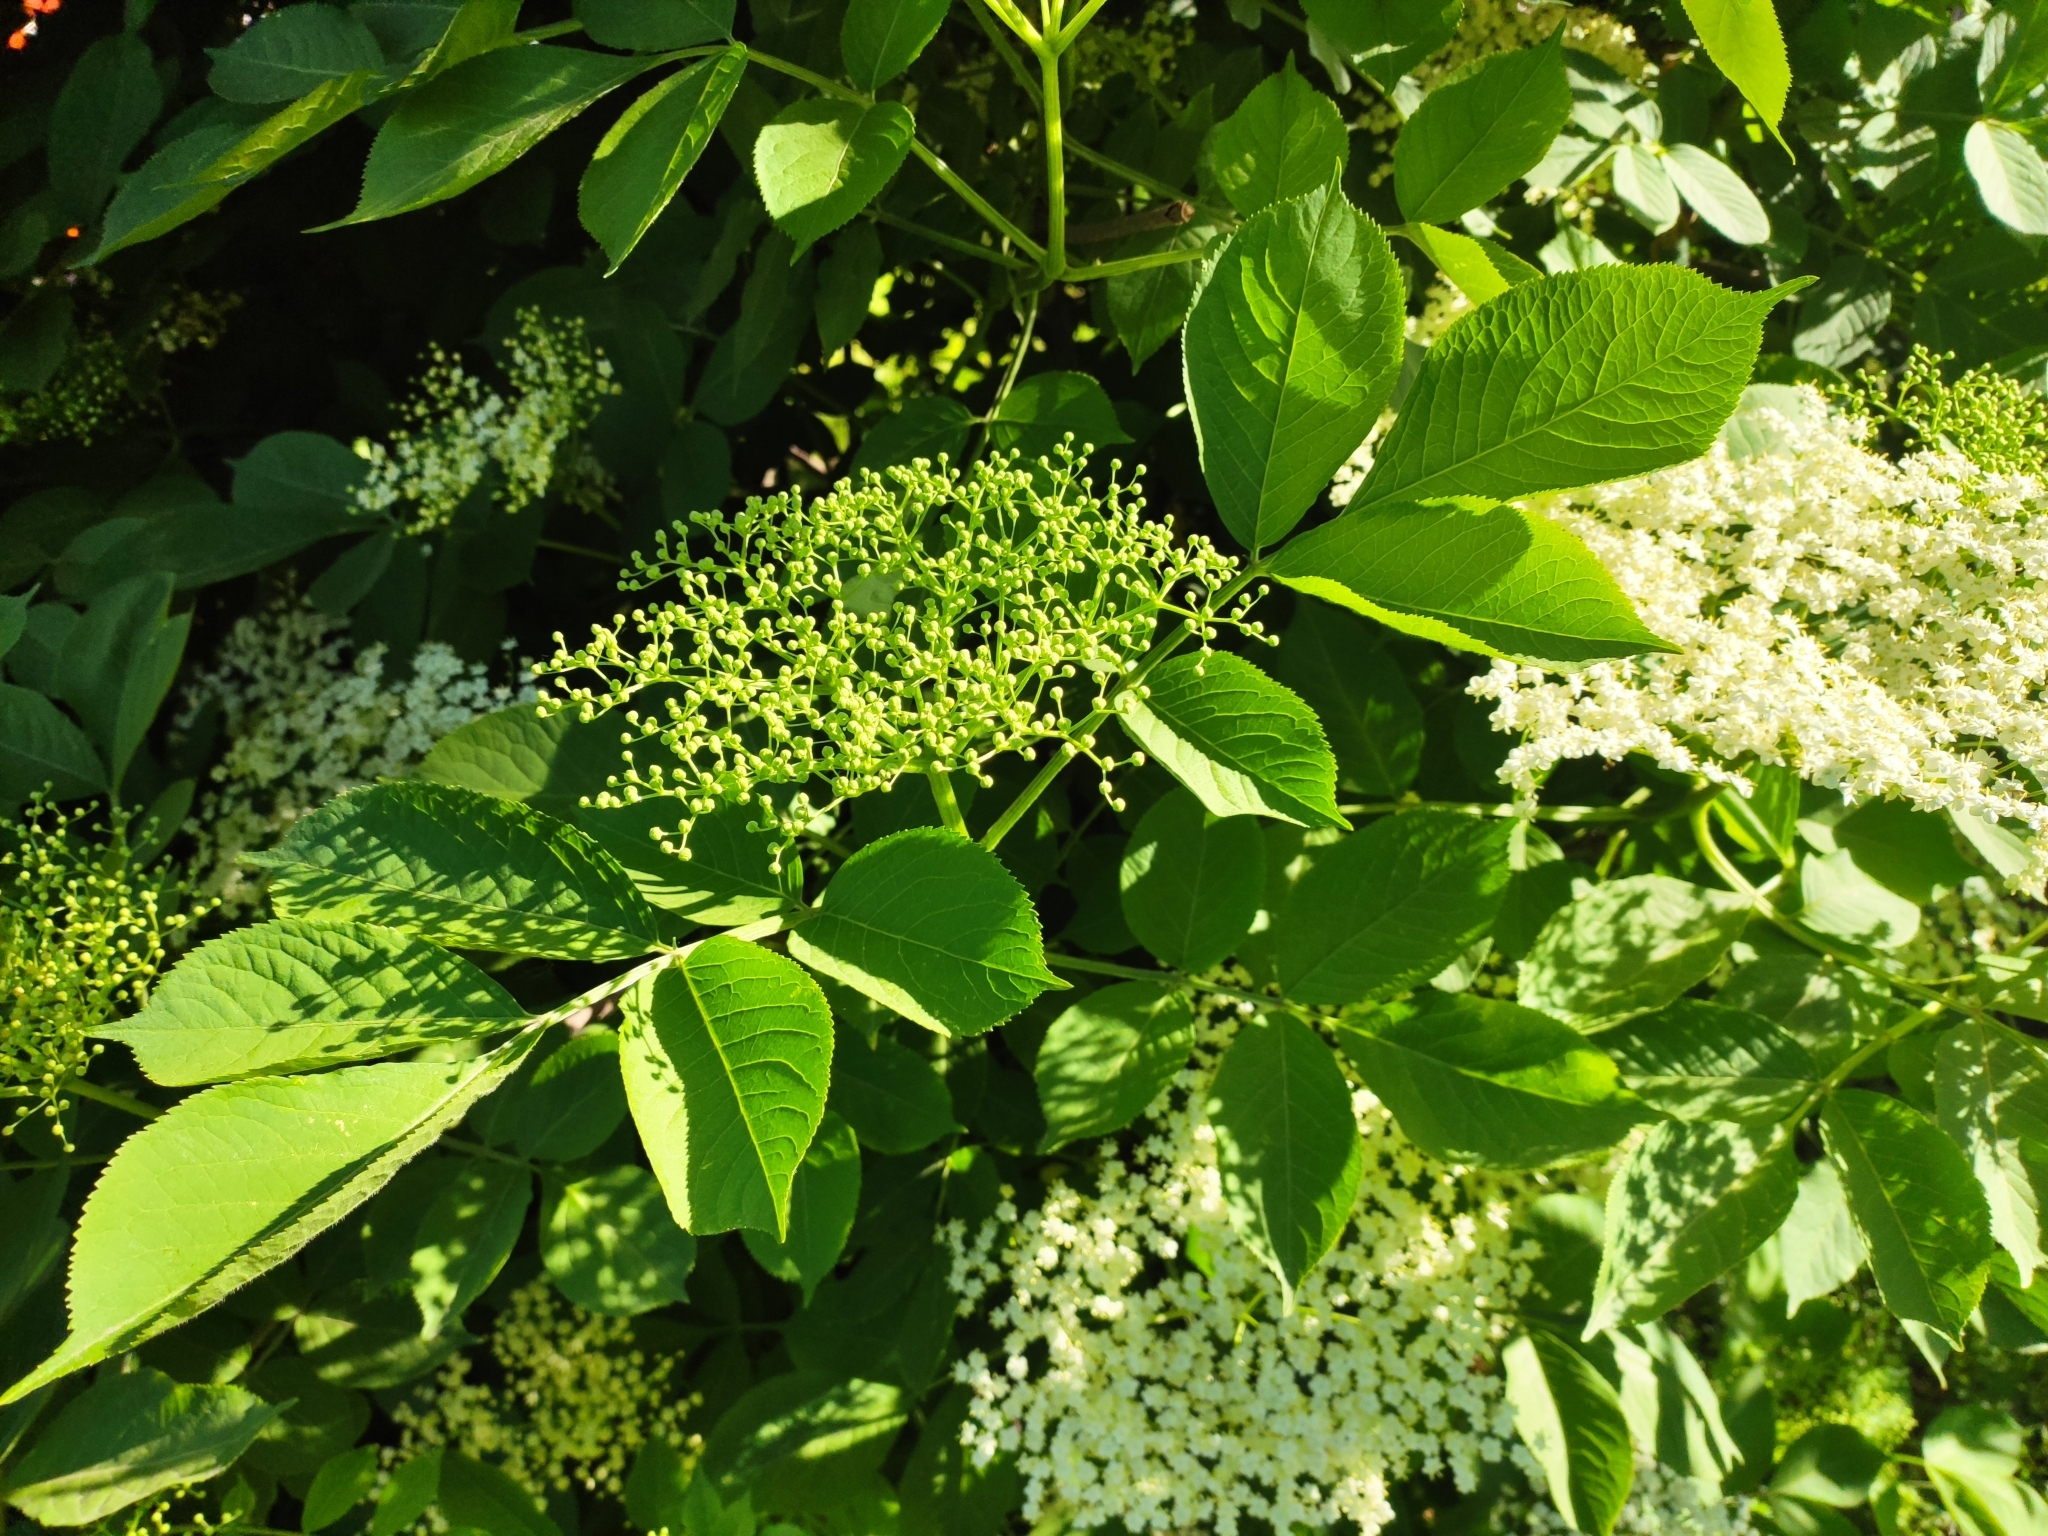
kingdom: Plantae
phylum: Tracheophyta
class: Magnoliopsida
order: Dipsacales
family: Viburnaceae
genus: Sambucus
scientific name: Sambucus nigra
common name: Elder
